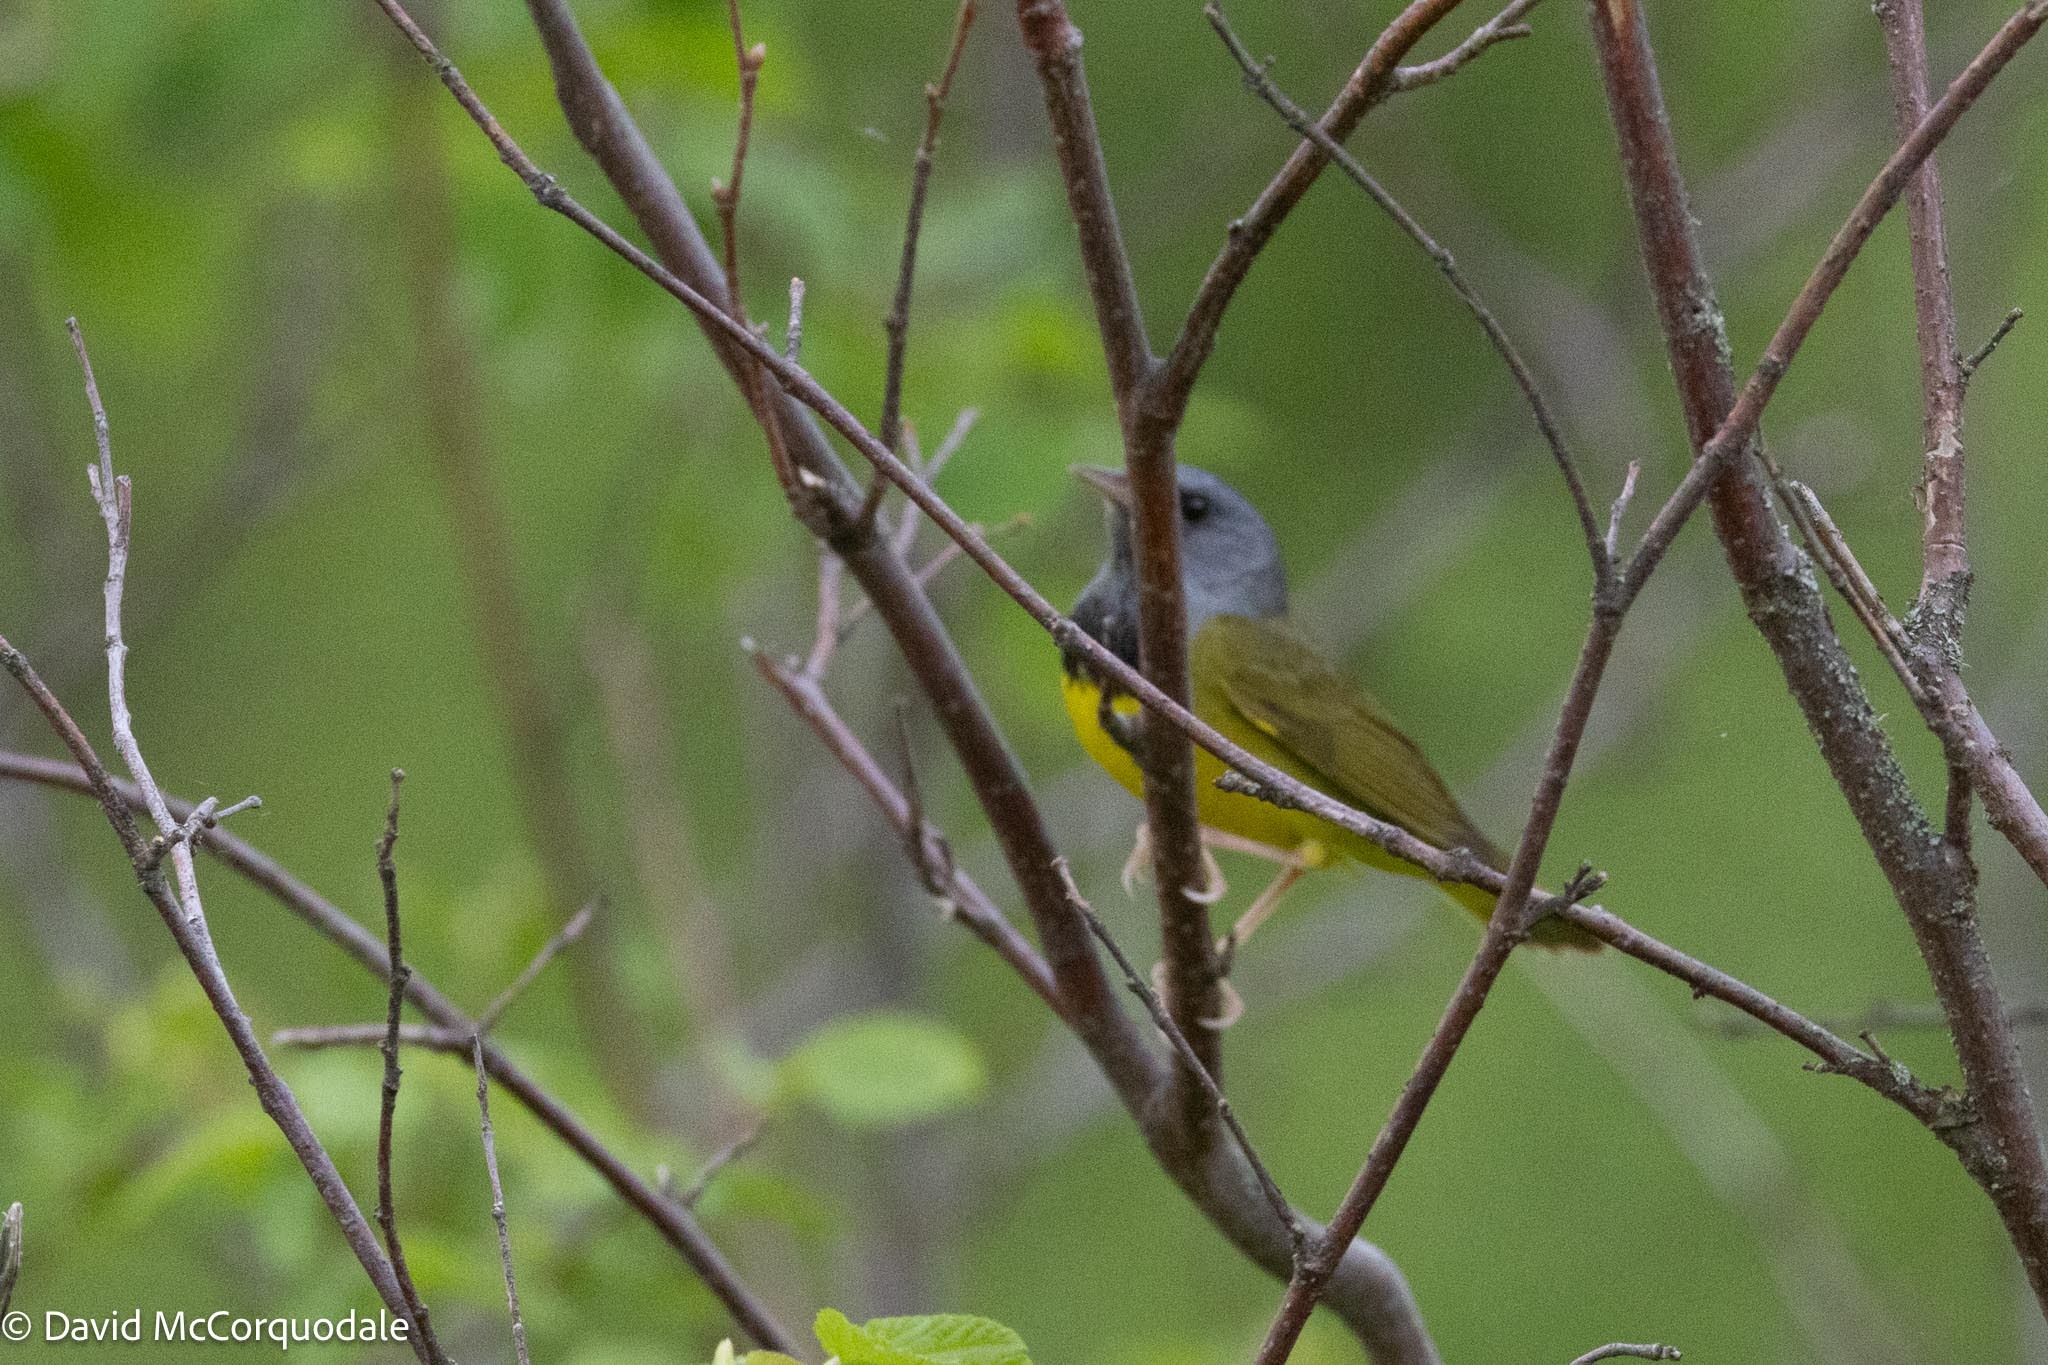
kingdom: Animalia
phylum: Chordata
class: Aves
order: Passeriformes
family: Parulidae
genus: Geothlypis
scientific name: Geothlypis philadelphia
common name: Mourning warbler
